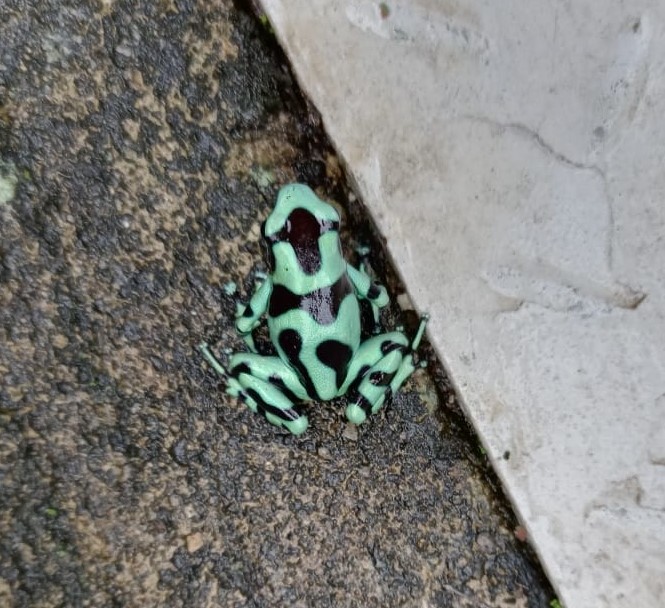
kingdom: Animalia
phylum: Chordata
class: Amphibia
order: Anura
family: Dendrobatidae
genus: Dendrobates
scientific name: Dendrobates auratus
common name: Green and black poison dart frog
